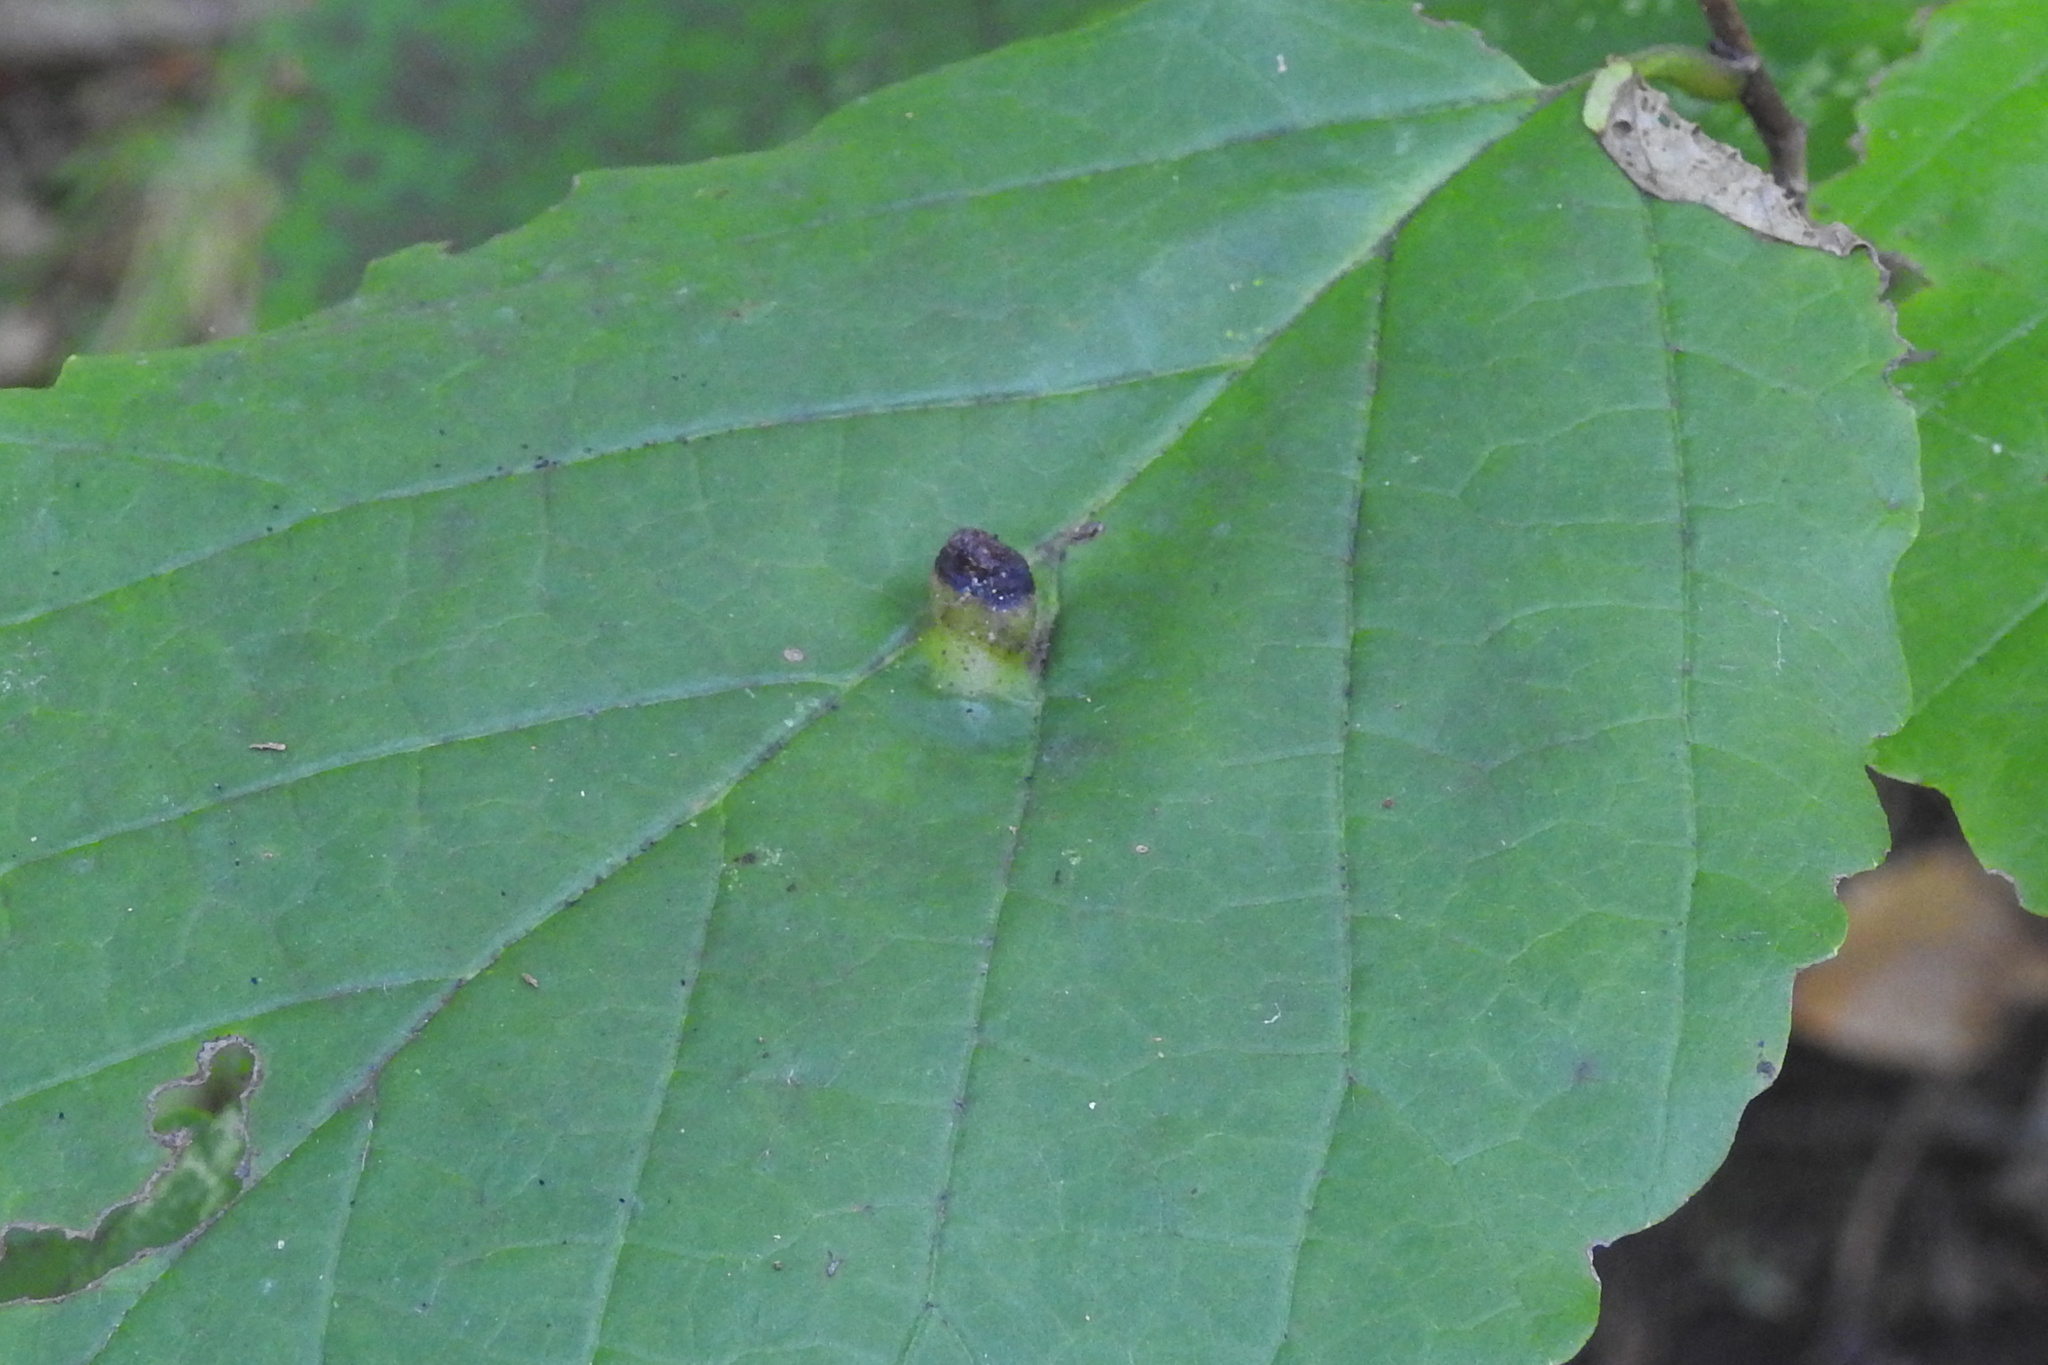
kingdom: Animalia
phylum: Arthropoda
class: Insecta
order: Hemiptera
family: Aphididae
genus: Hormaphis
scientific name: Hormaphis hamamelidis
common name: Witch-hazel cone gall aphid
